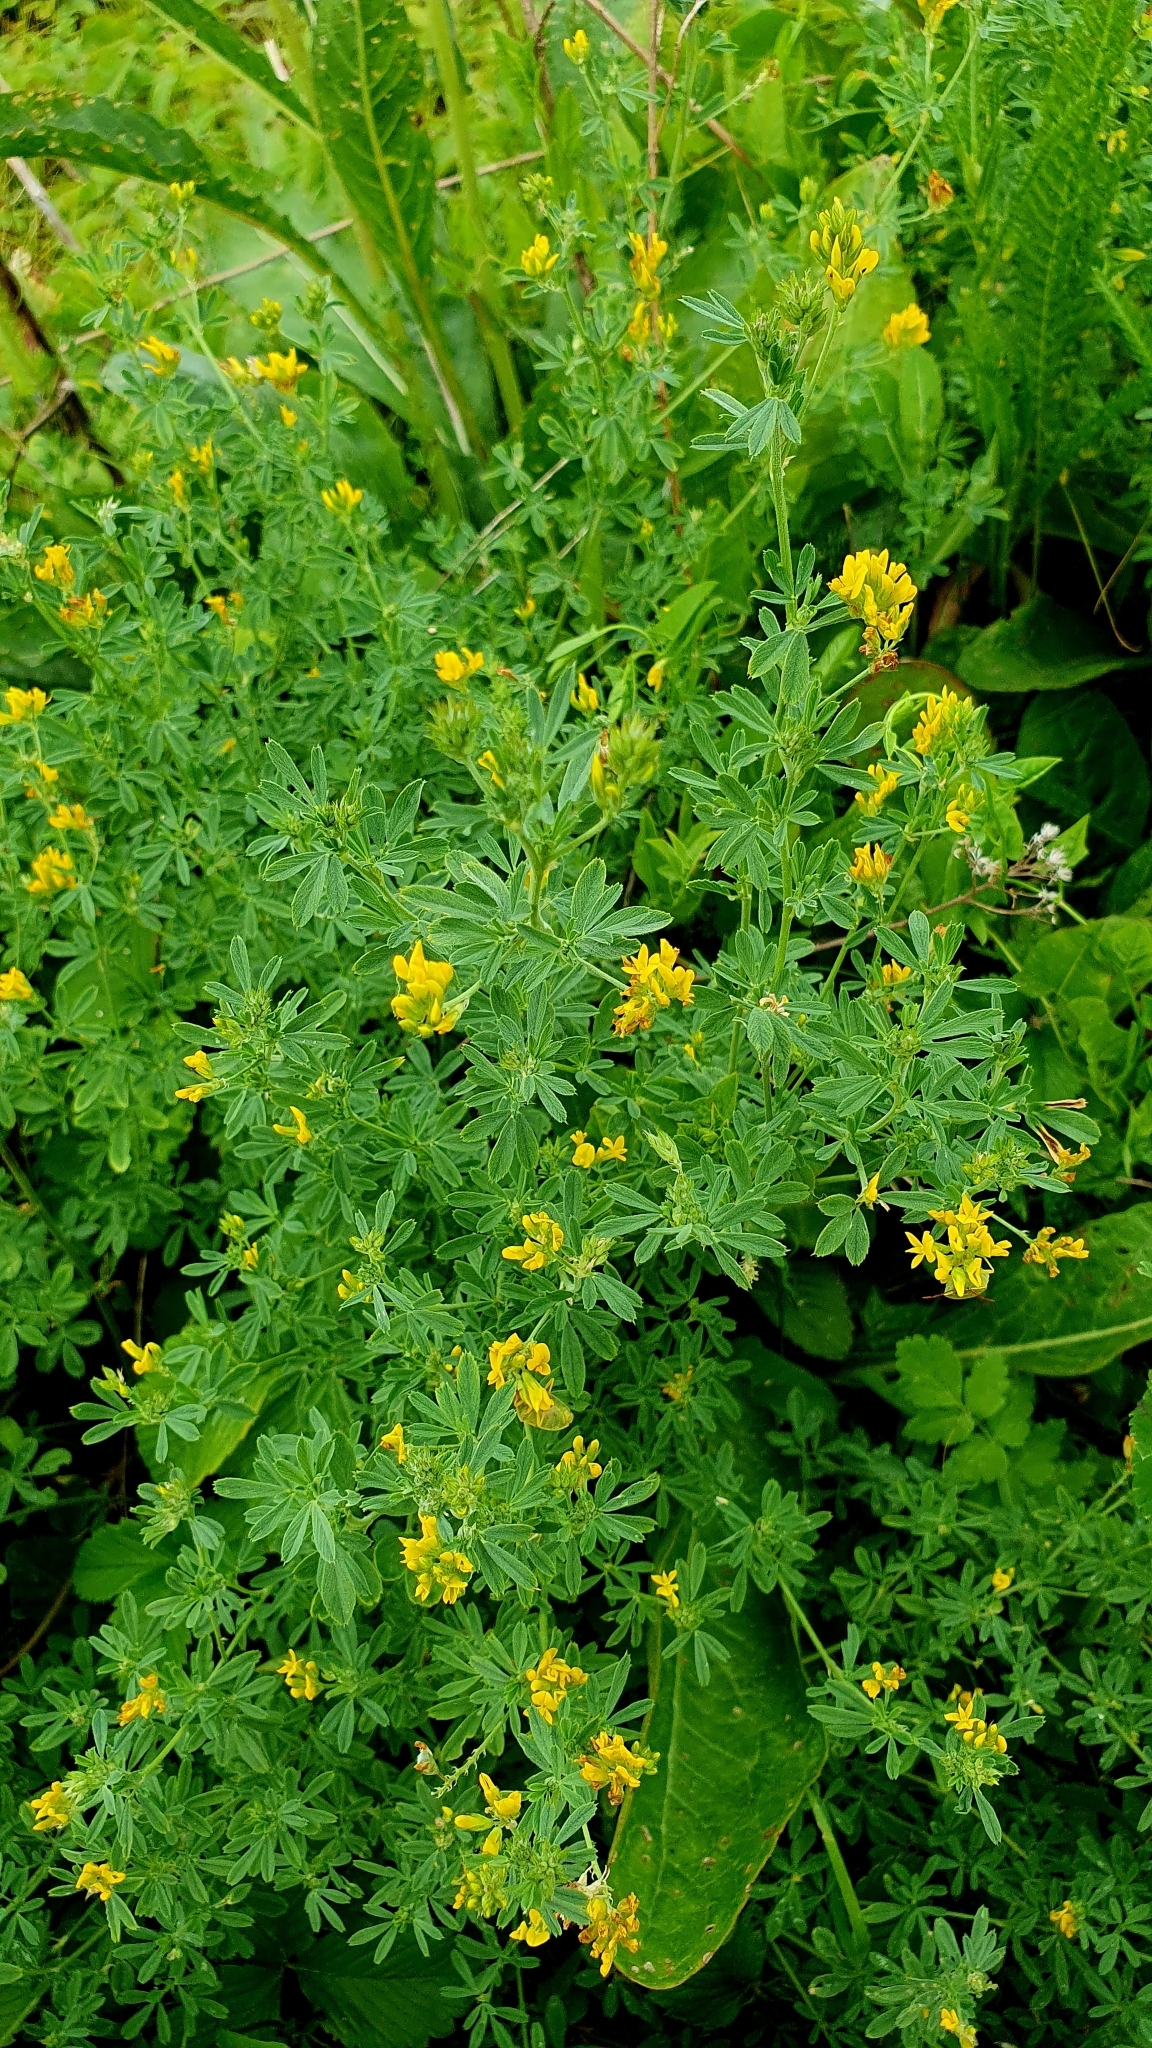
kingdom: Plantae
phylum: Tracheophyta
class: Magnoliopsida
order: Fabales
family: Fabaceae
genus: Medicago
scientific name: Medicago falcata
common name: Sickle medick
